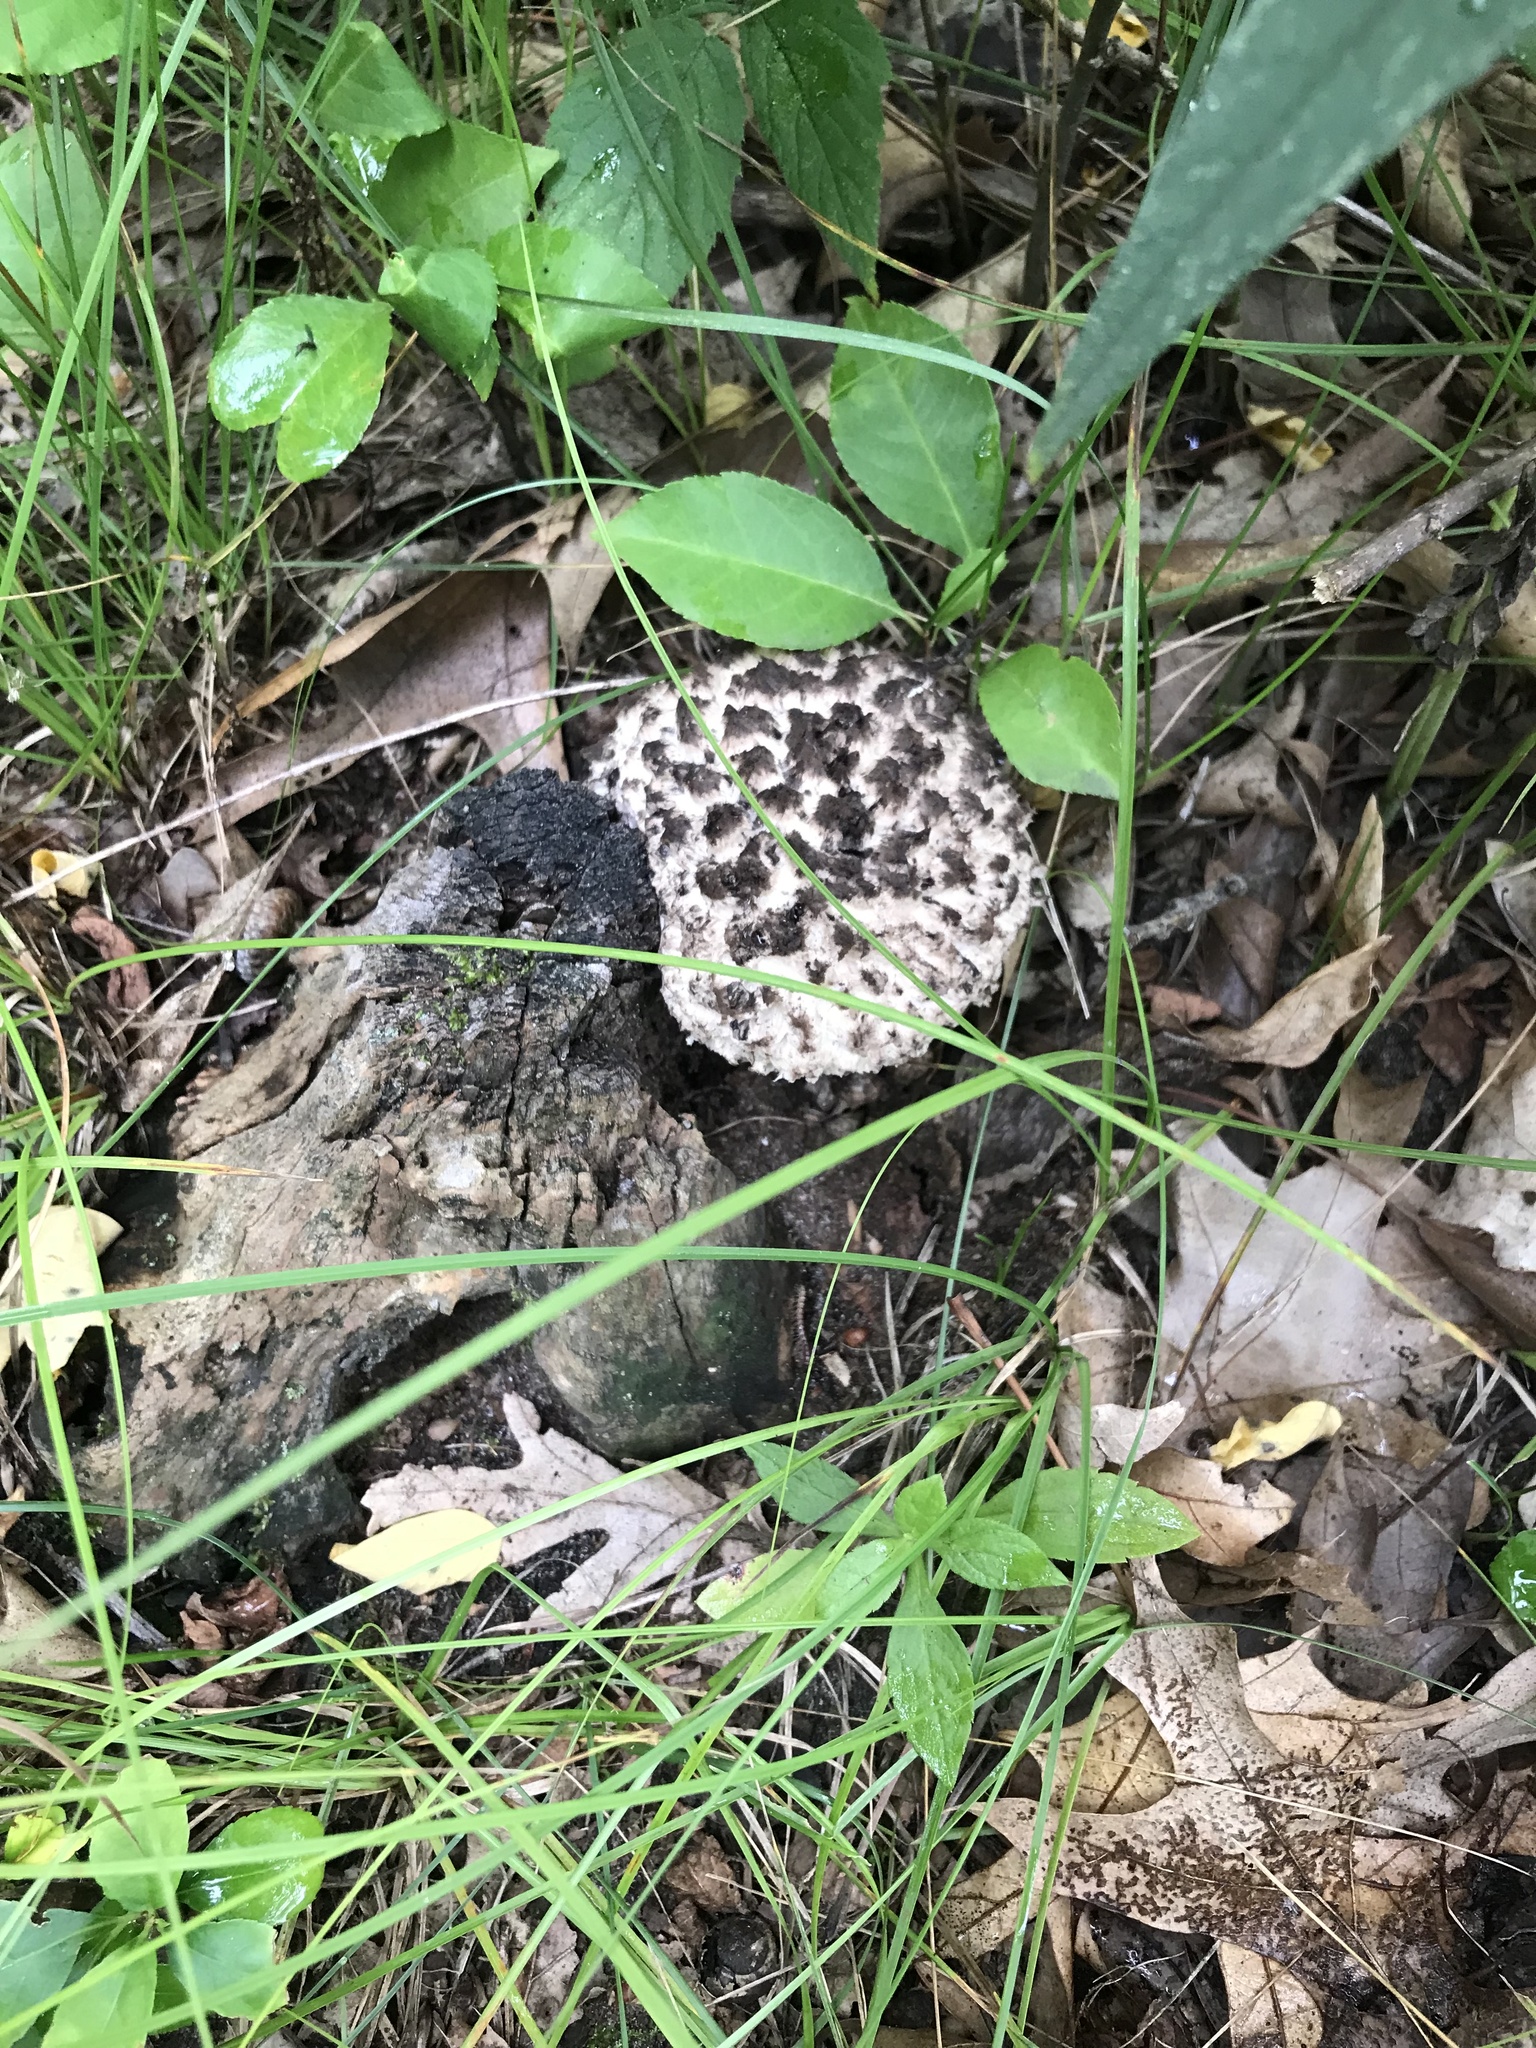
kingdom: Fungi
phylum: Basidiomycota
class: Agaricomycetes
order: Boletales
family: Boletaceae
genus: Strobilomyces
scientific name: Strobilomyces strobilaceus
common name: Old man of the woods
